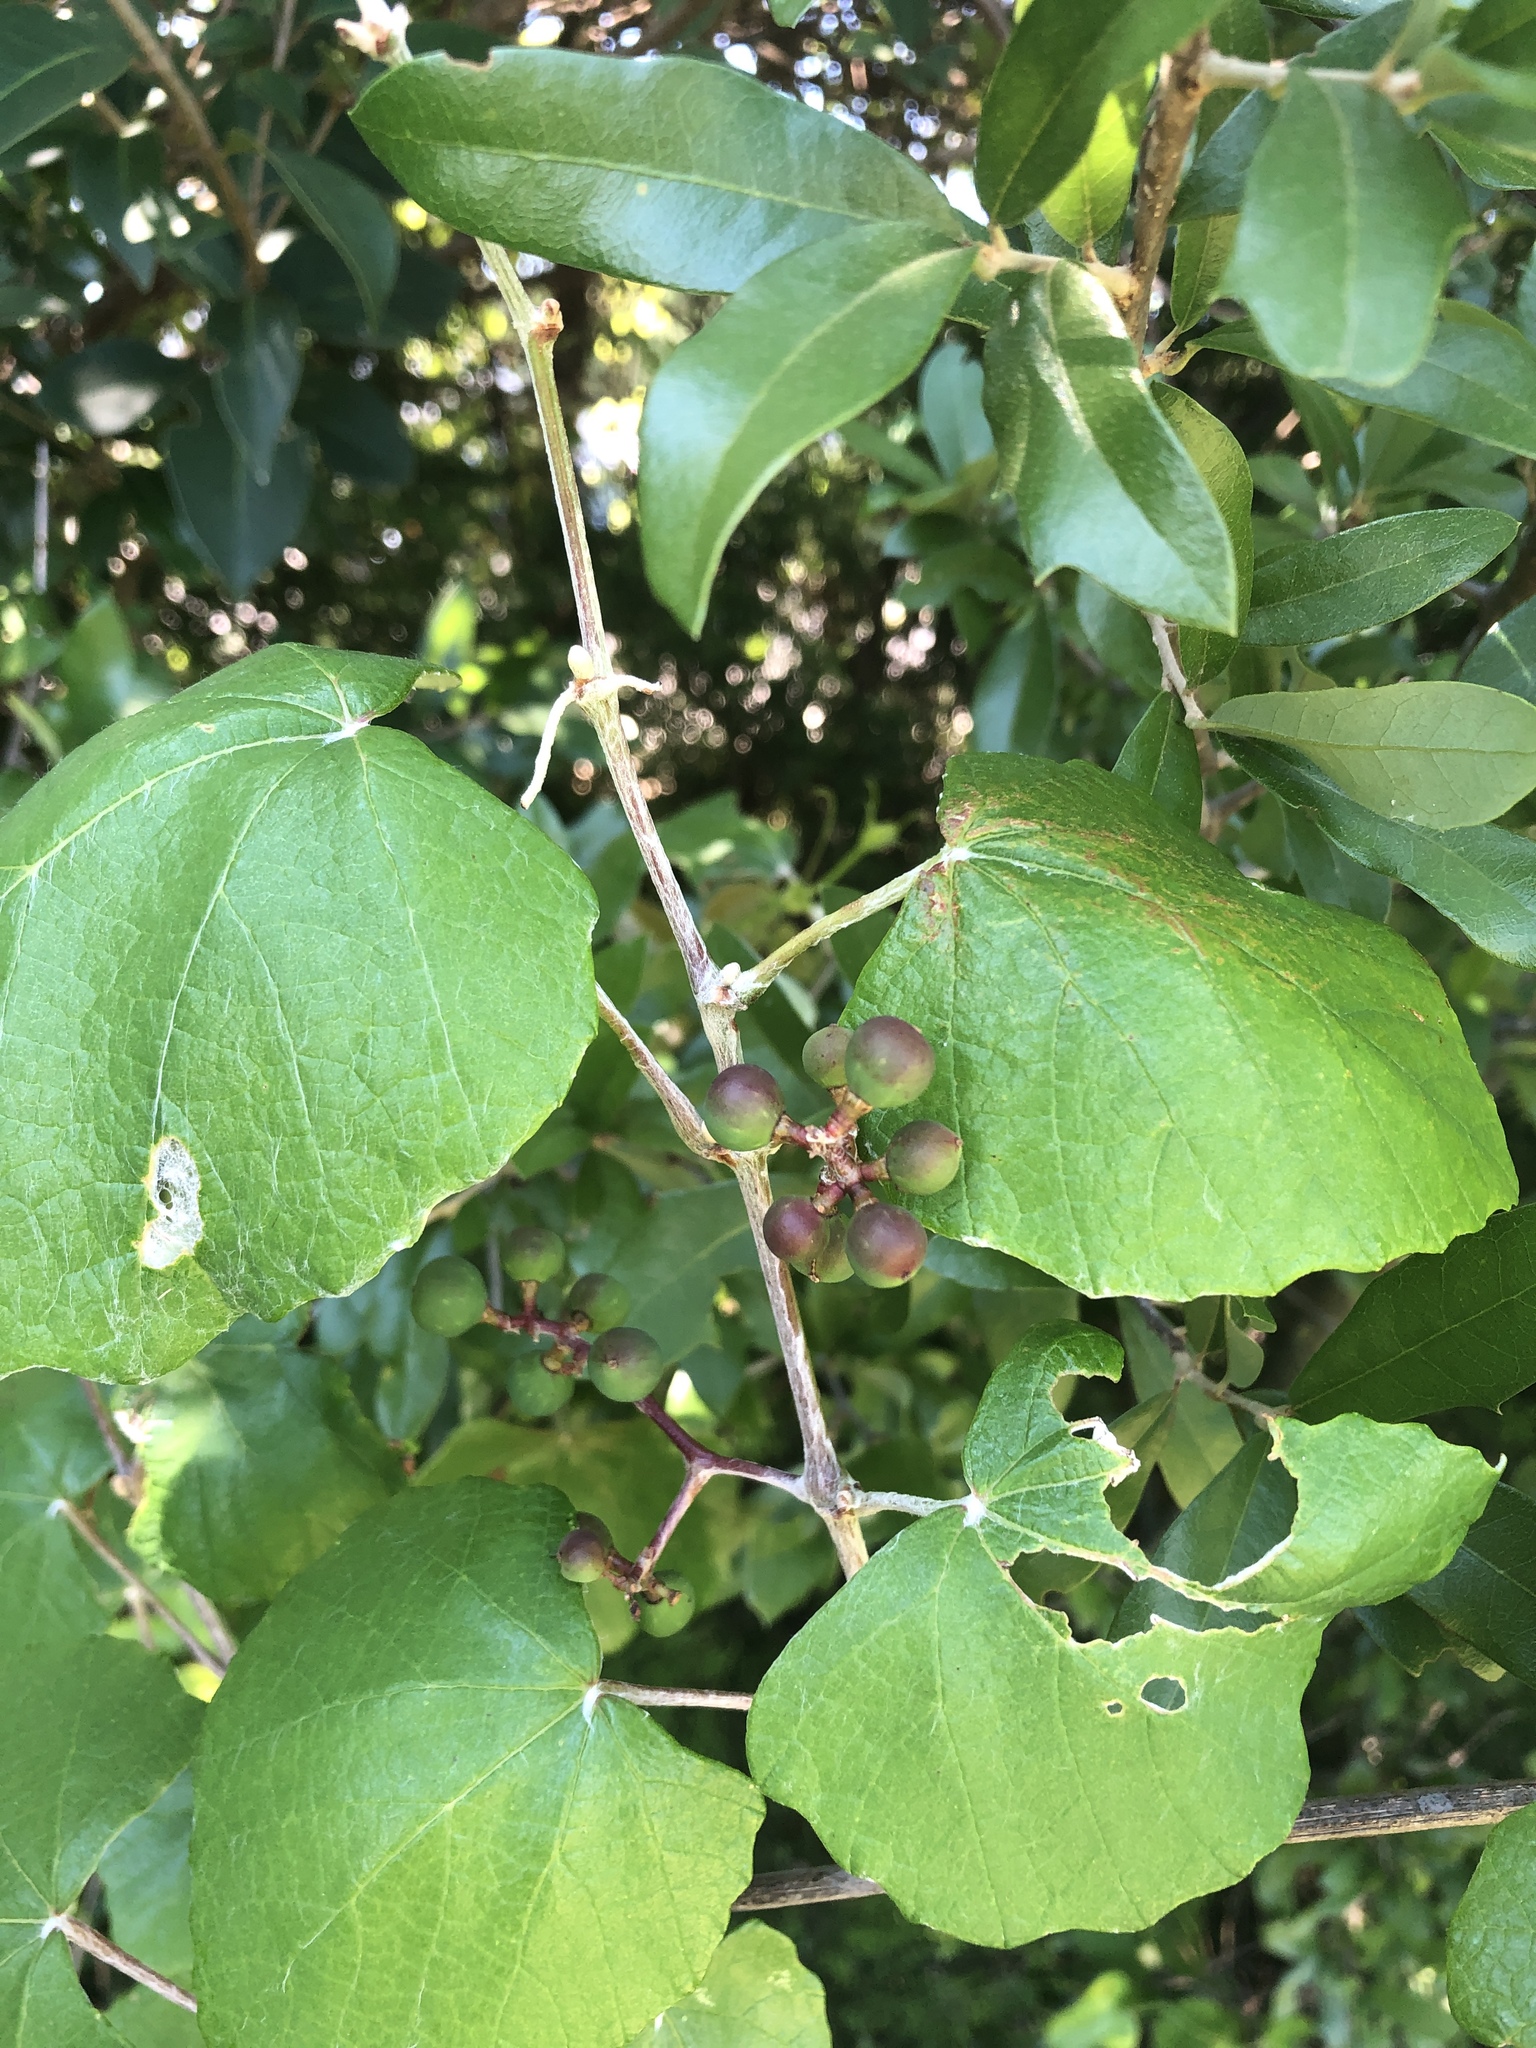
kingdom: Plantae
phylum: Tracheophyta
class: Magnoliopsida
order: Vitales
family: Vitaceae
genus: Vitis
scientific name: Vitis mustangensis
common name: Mustang grape
